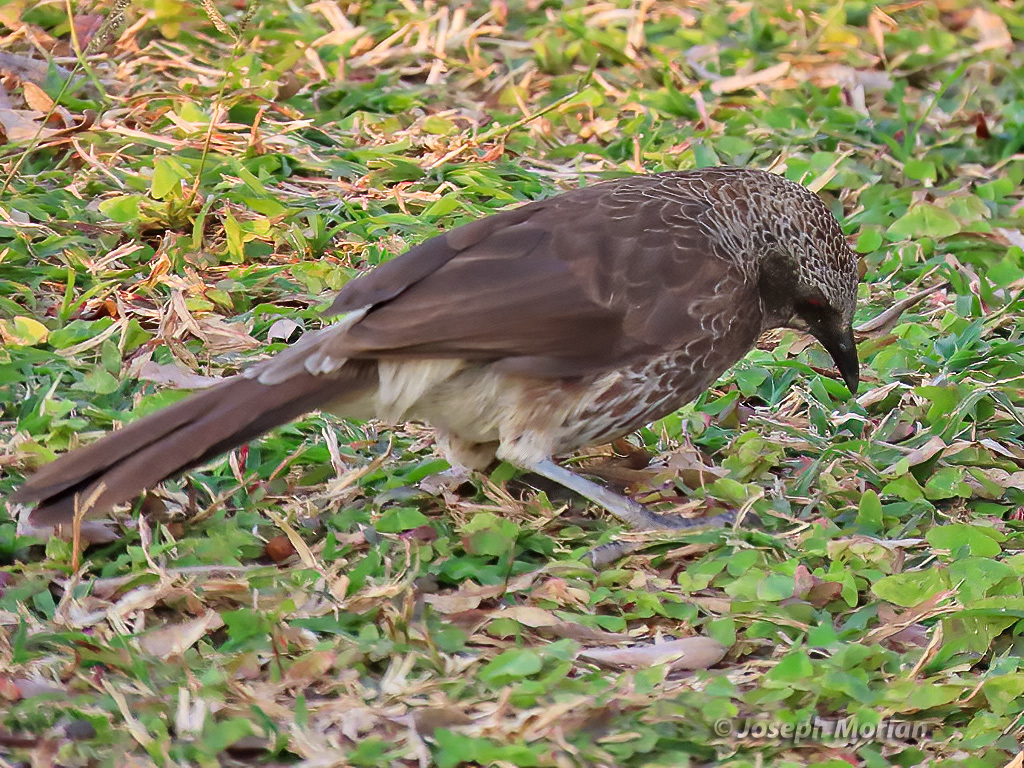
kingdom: Animalia
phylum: Chordata
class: Aves
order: Passeriformes
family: Leiothrichidae
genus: Turdoides
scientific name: Turdoides hartlaubii
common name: Hartlaub's babbler
